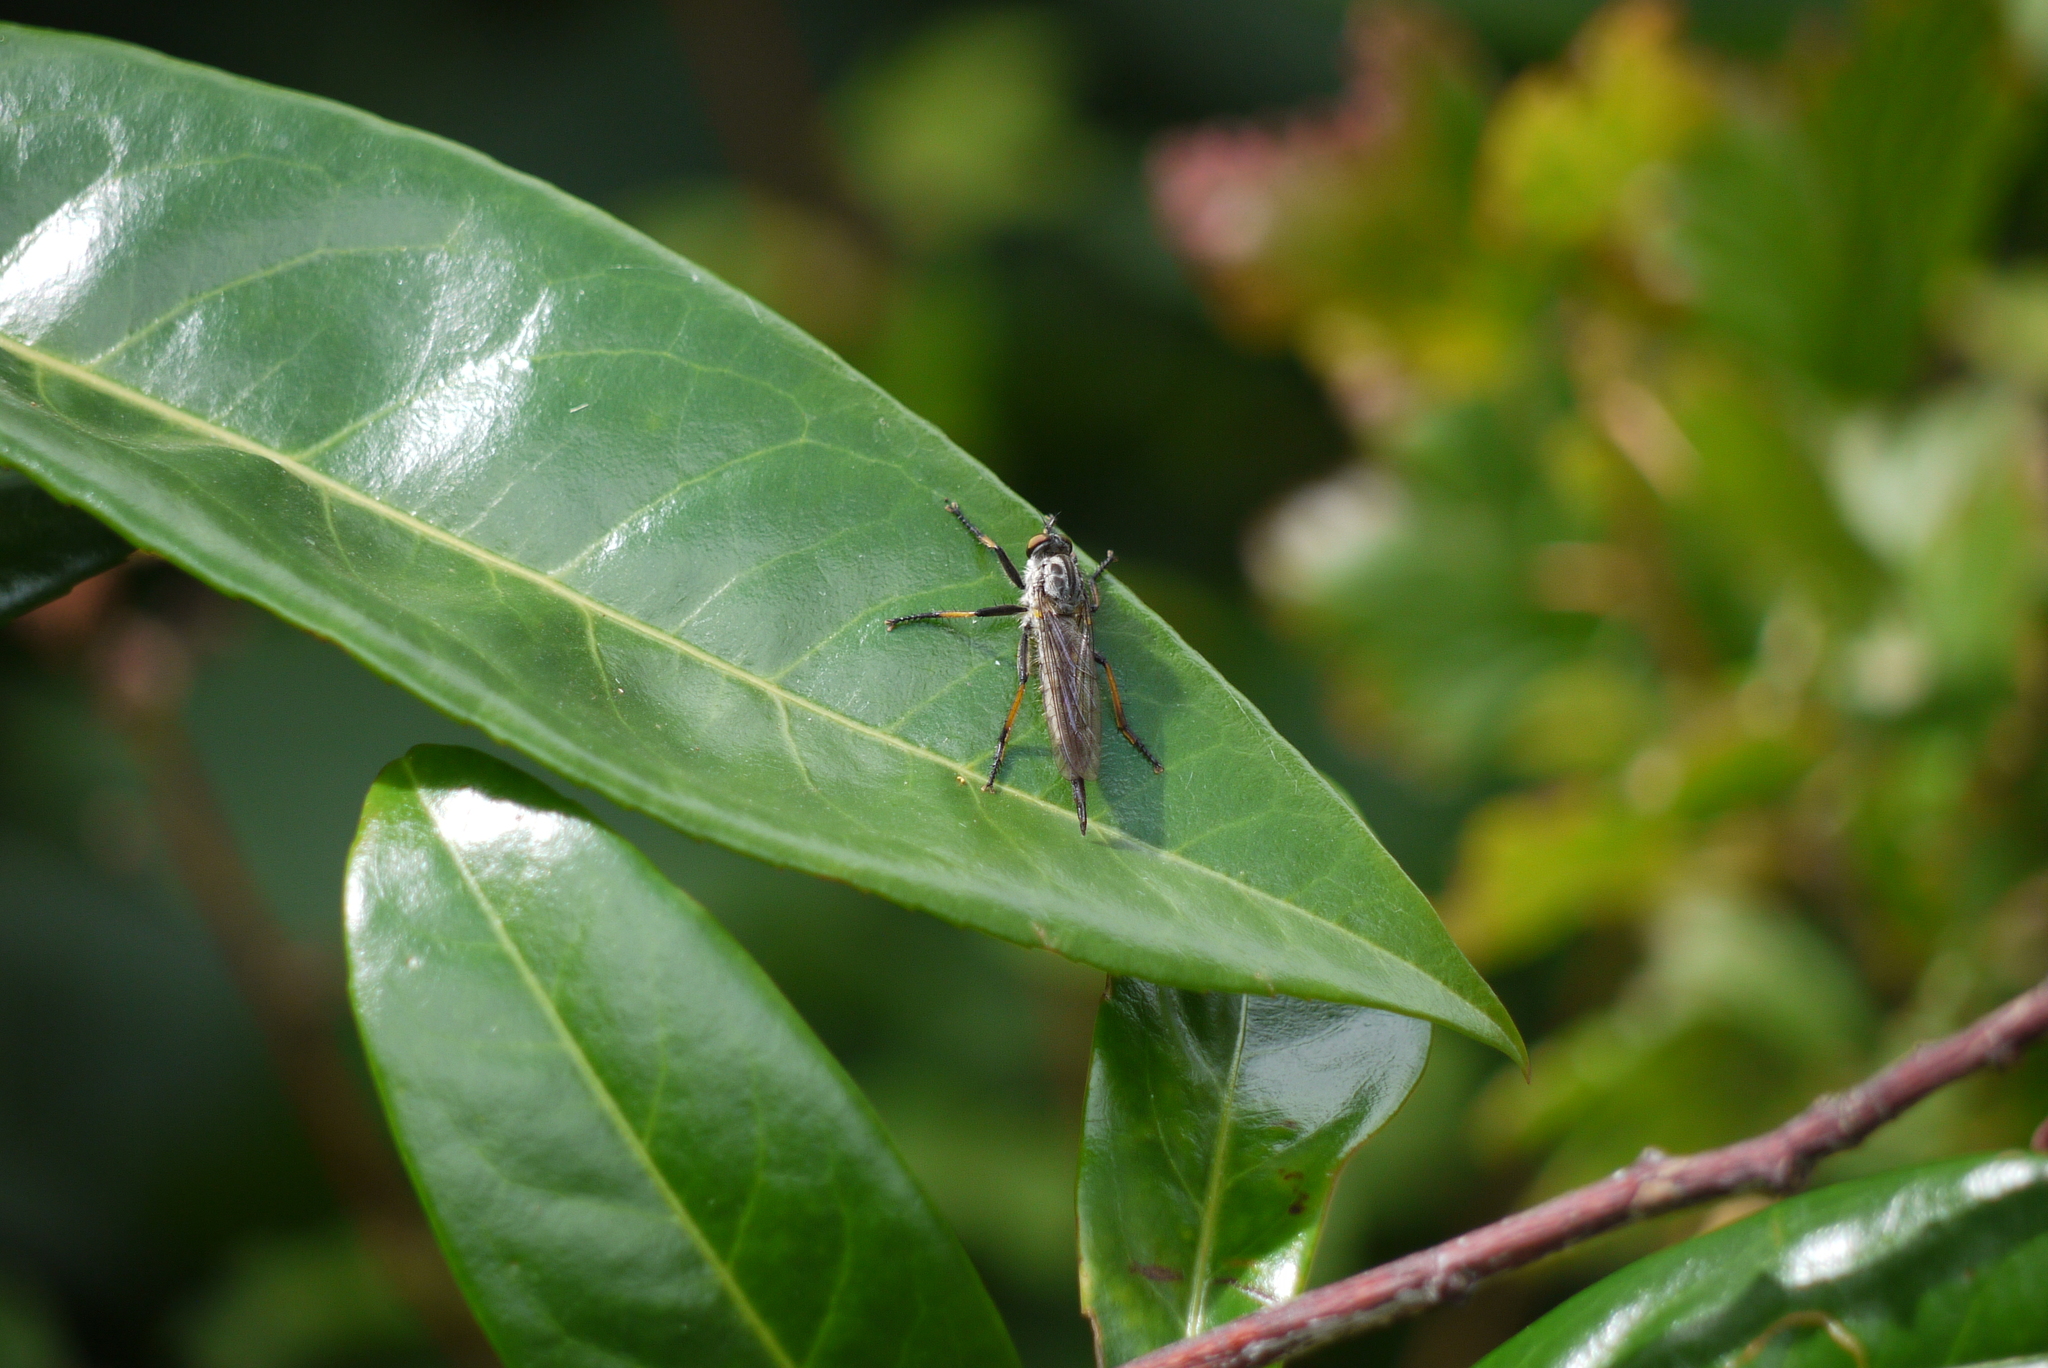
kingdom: Animalia
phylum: Arthropoda
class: Insecta
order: Diptera
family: Asilidae
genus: Neoitamus
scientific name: Neoitamus cyanurus
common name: Common awl robberfly
